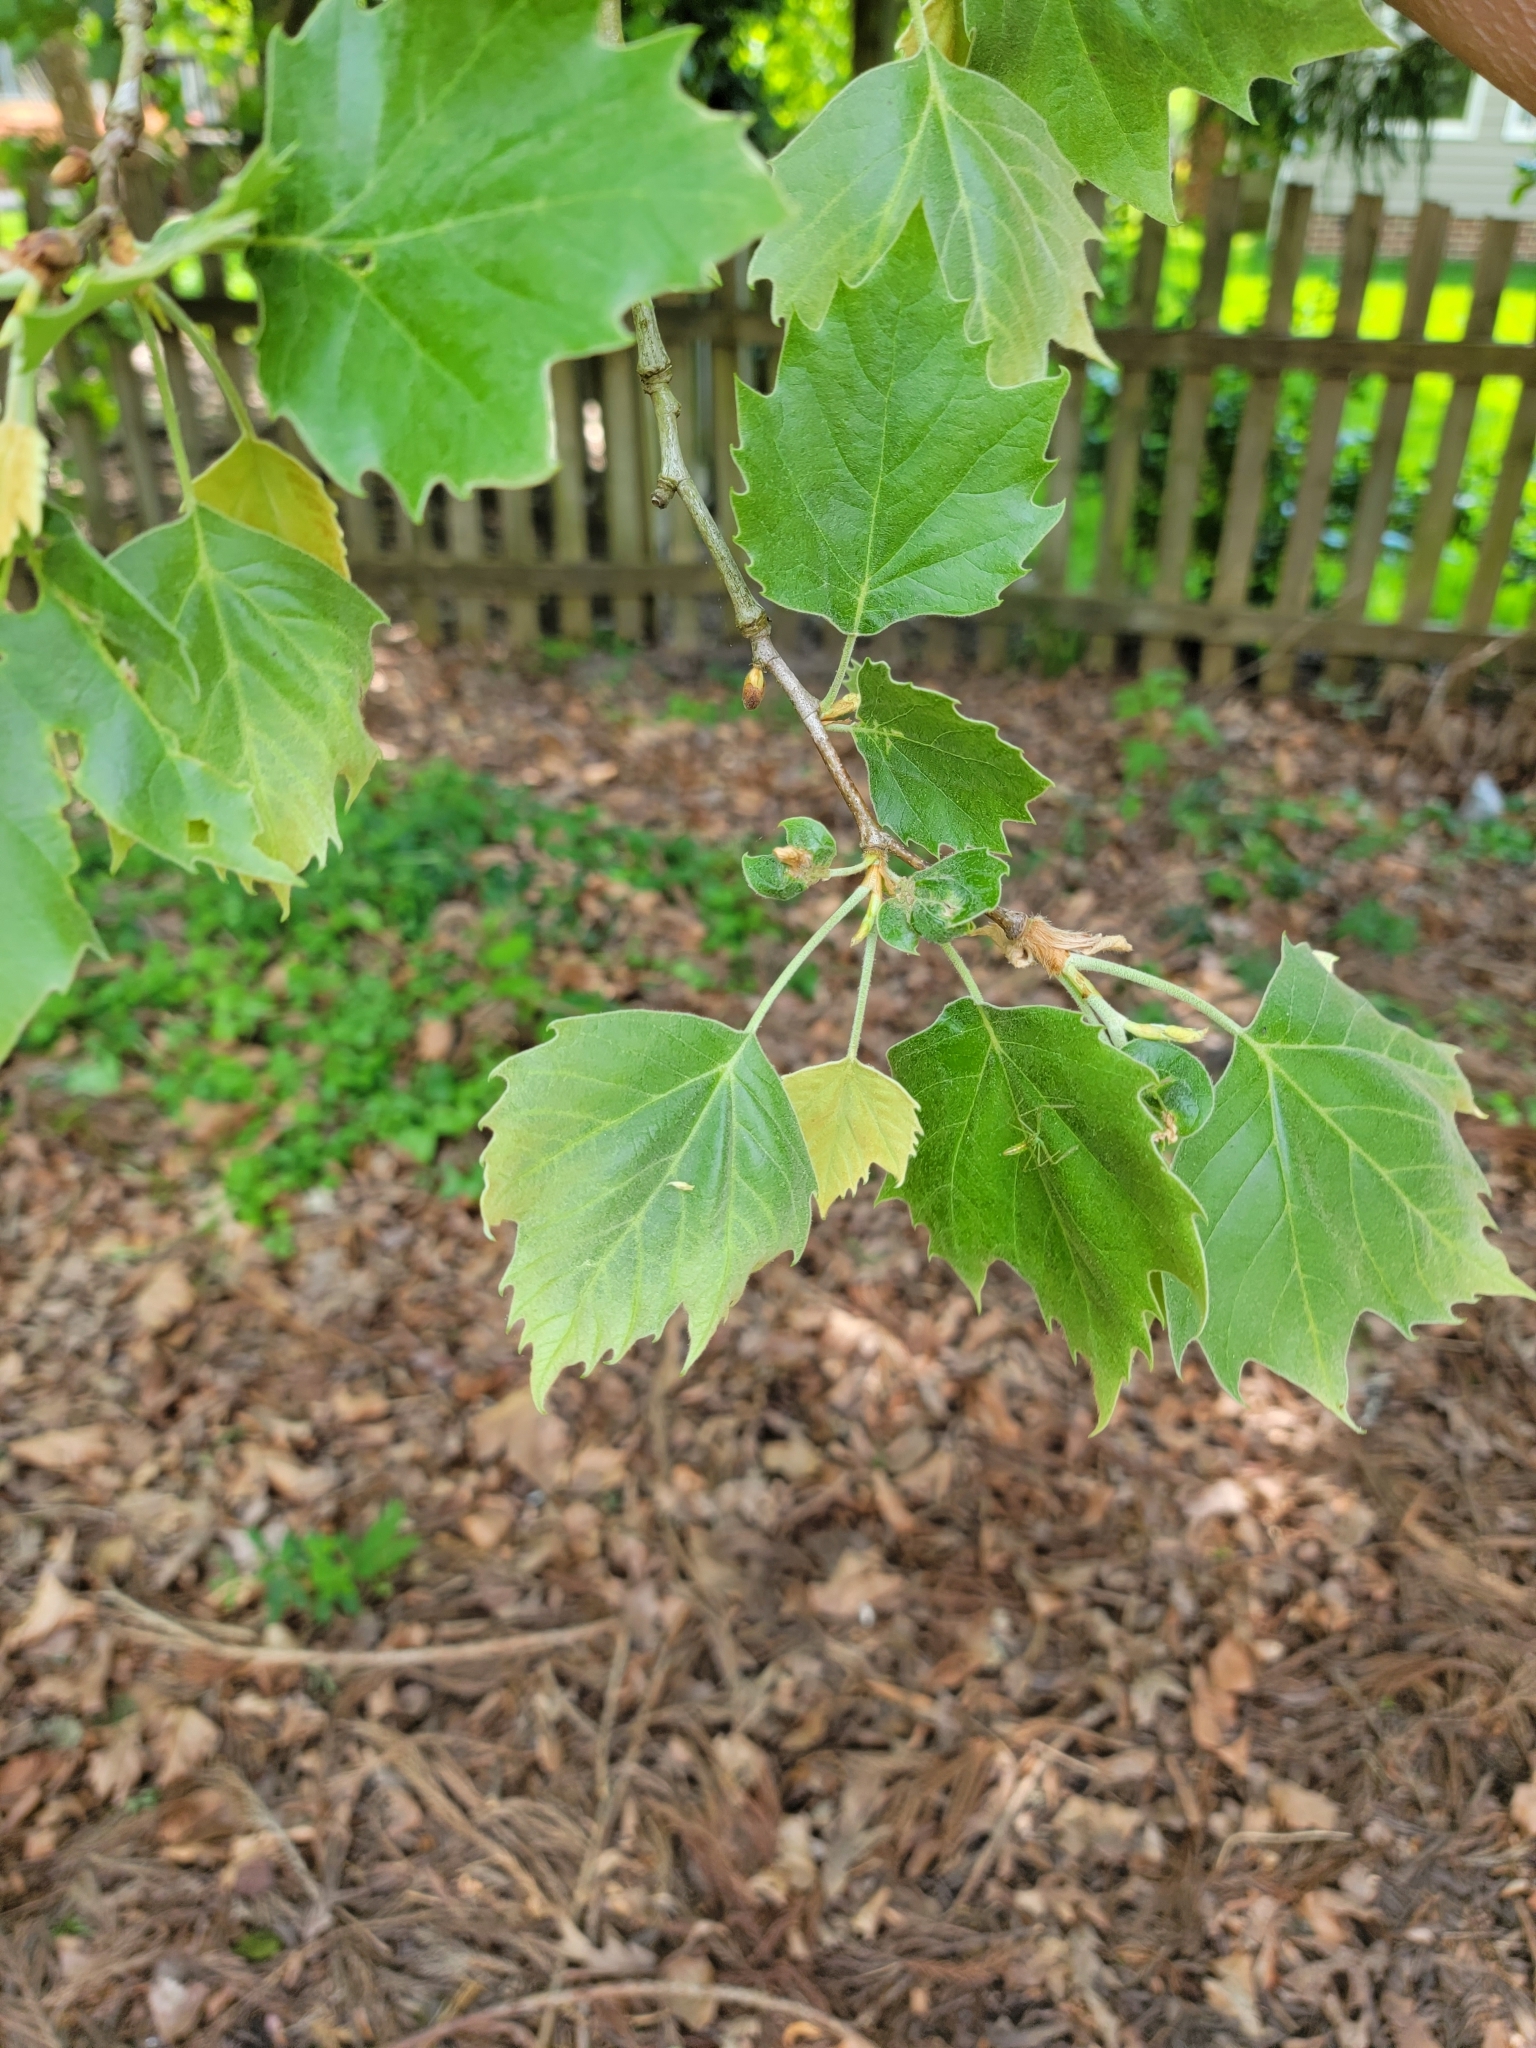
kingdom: Plantae
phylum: Tracheophyta
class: Magnoliopsida
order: Proteales
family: Platanaceae
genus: Platanus
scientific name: Platanus occidentalis
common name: American sycamore
